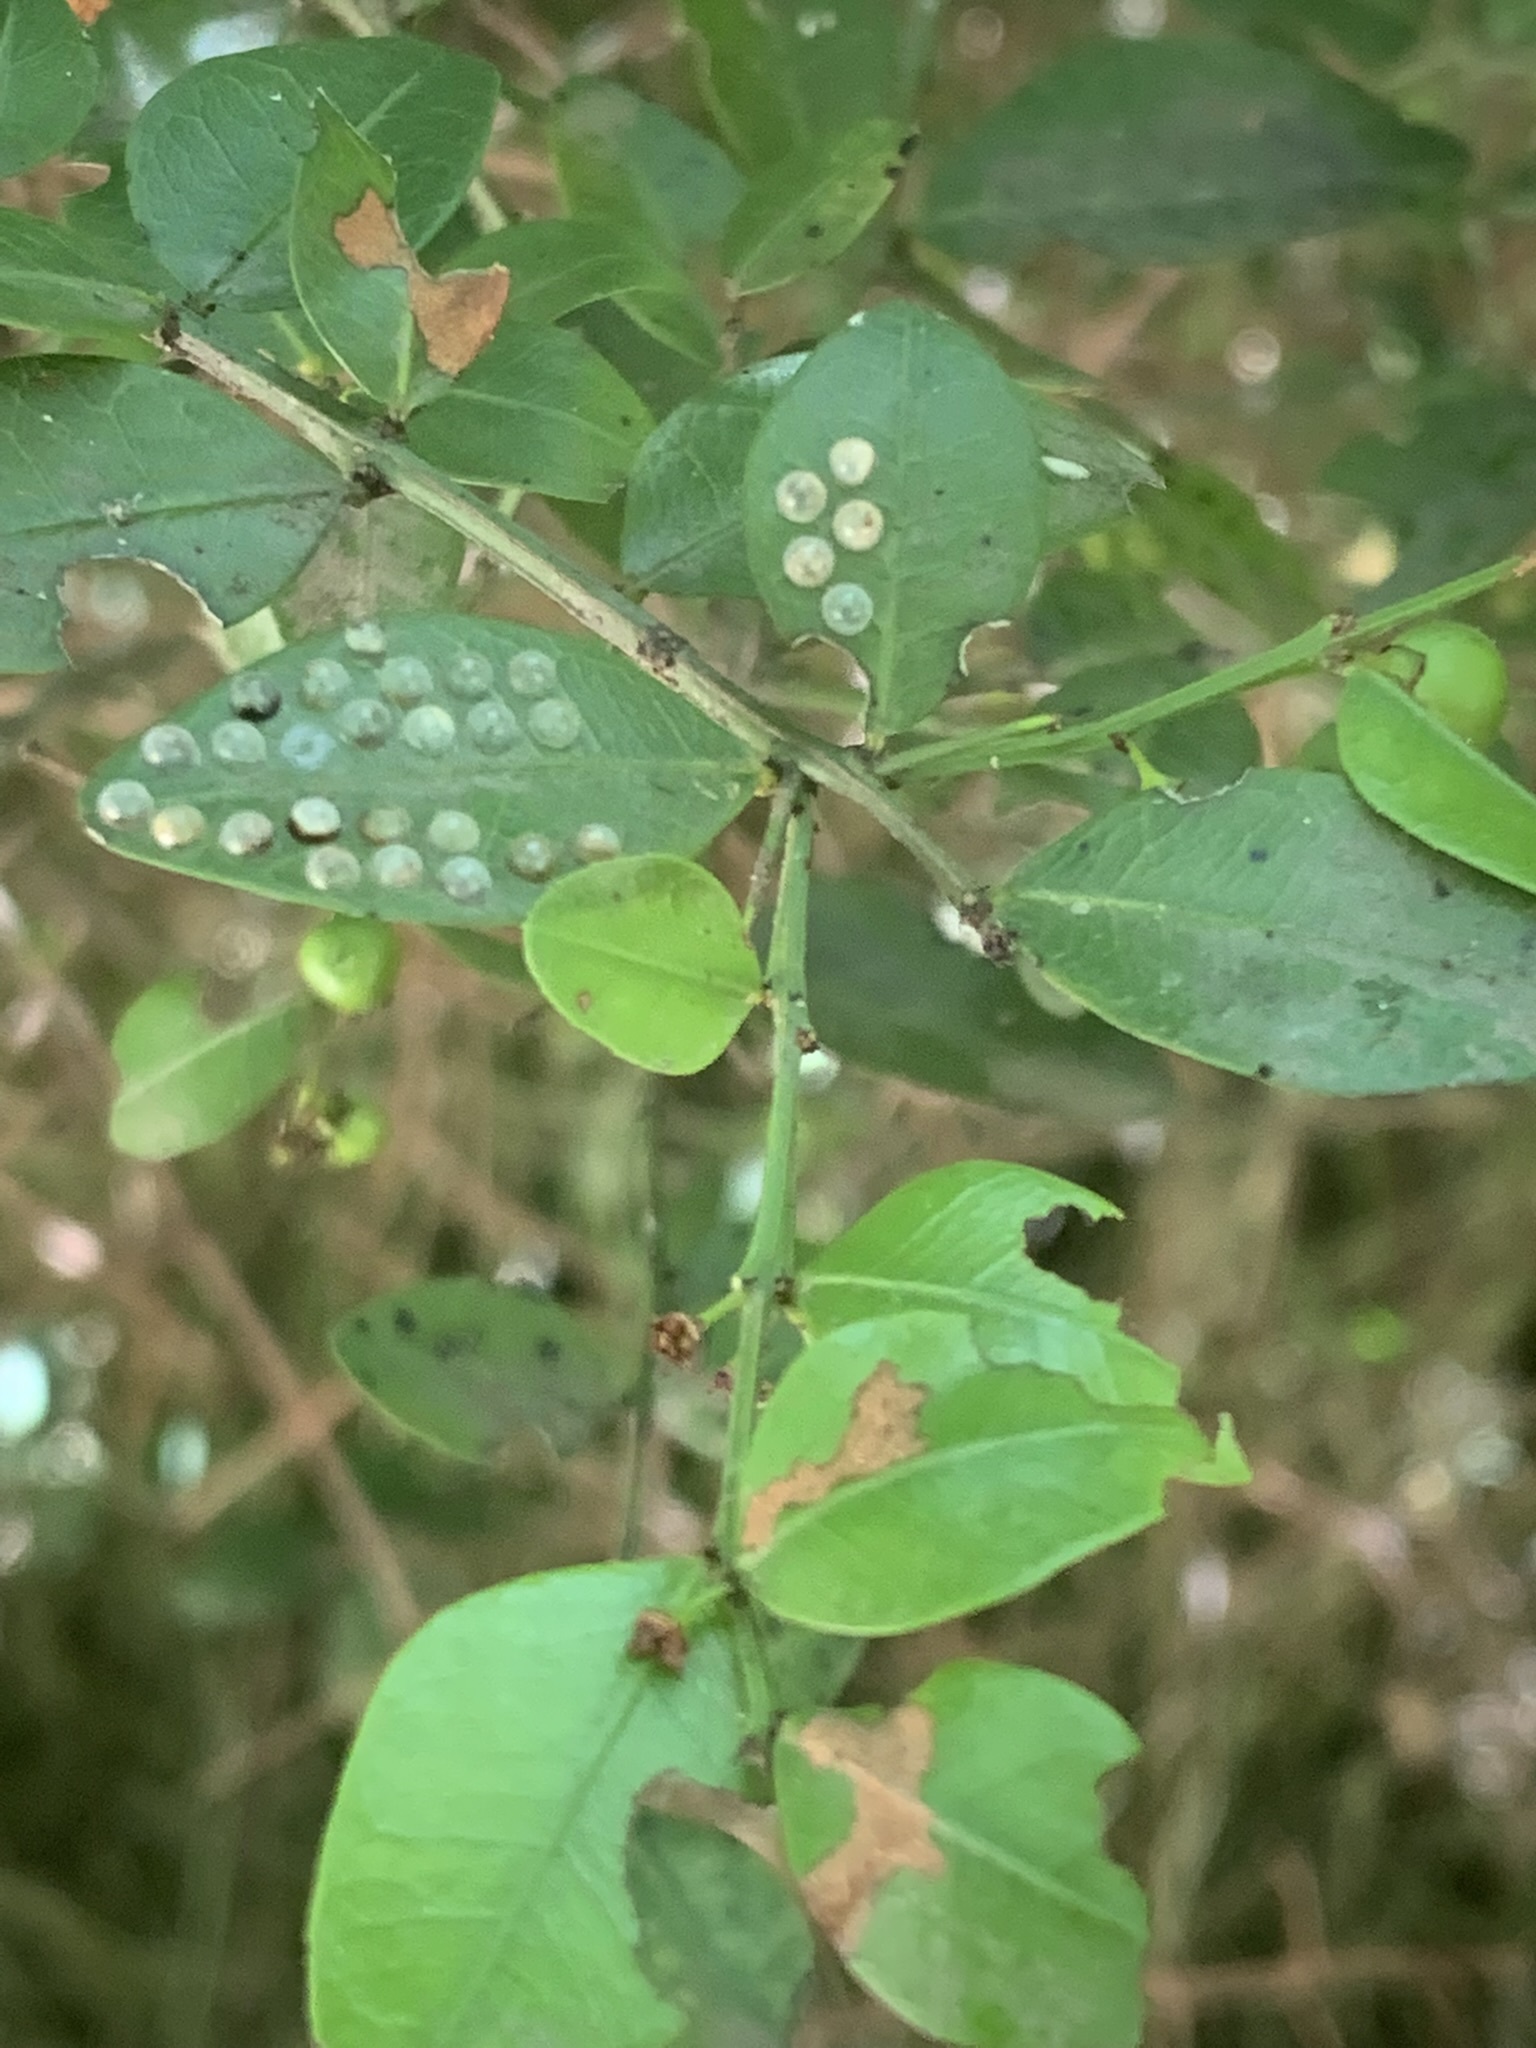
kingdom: Plantae
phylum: Tracheophyta
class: Magnoliopsida
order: Rosales
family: Rhamnaceae
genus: Scutia
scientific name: Scutia buxifolia
